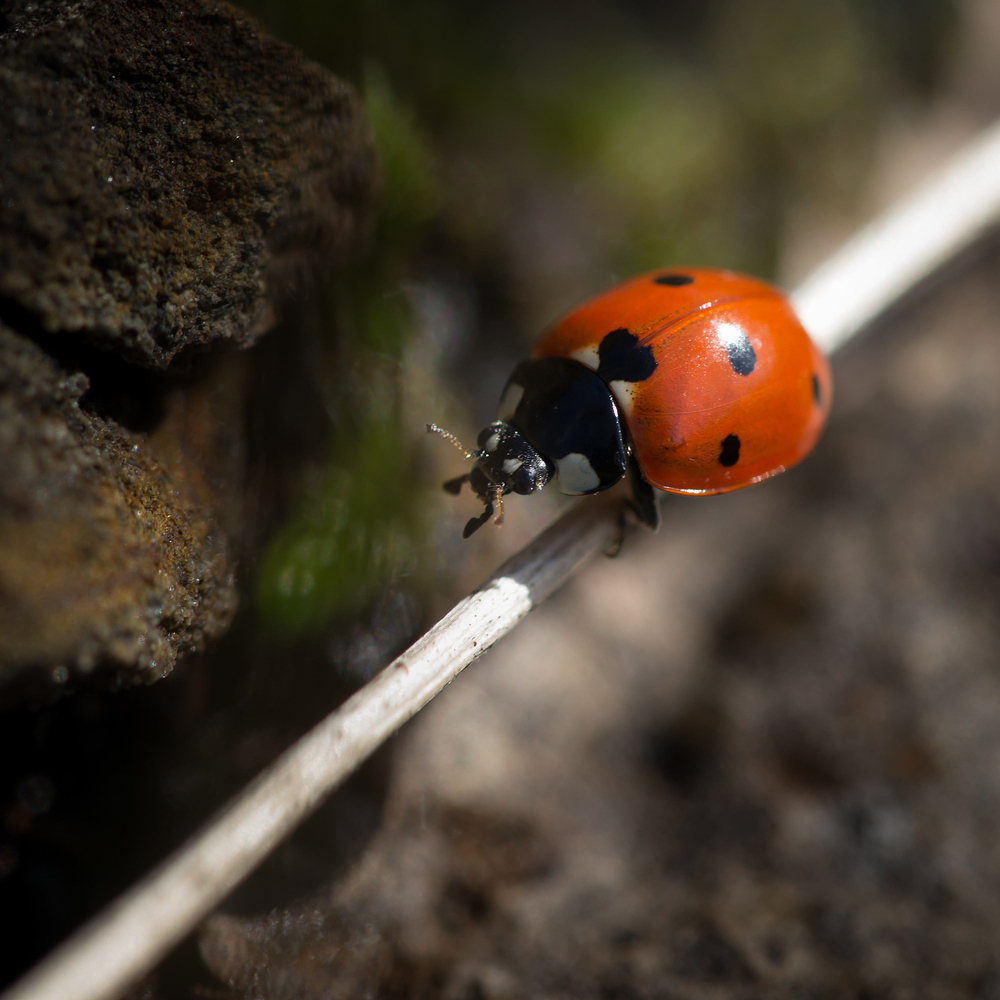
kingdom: Animalia
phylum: Arthropoda
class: Insecta
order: Coleoptera
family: Coccinellidae
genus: Coccinella
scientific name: Coccinella septempunctata
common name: Sevenspotted lady beetle
